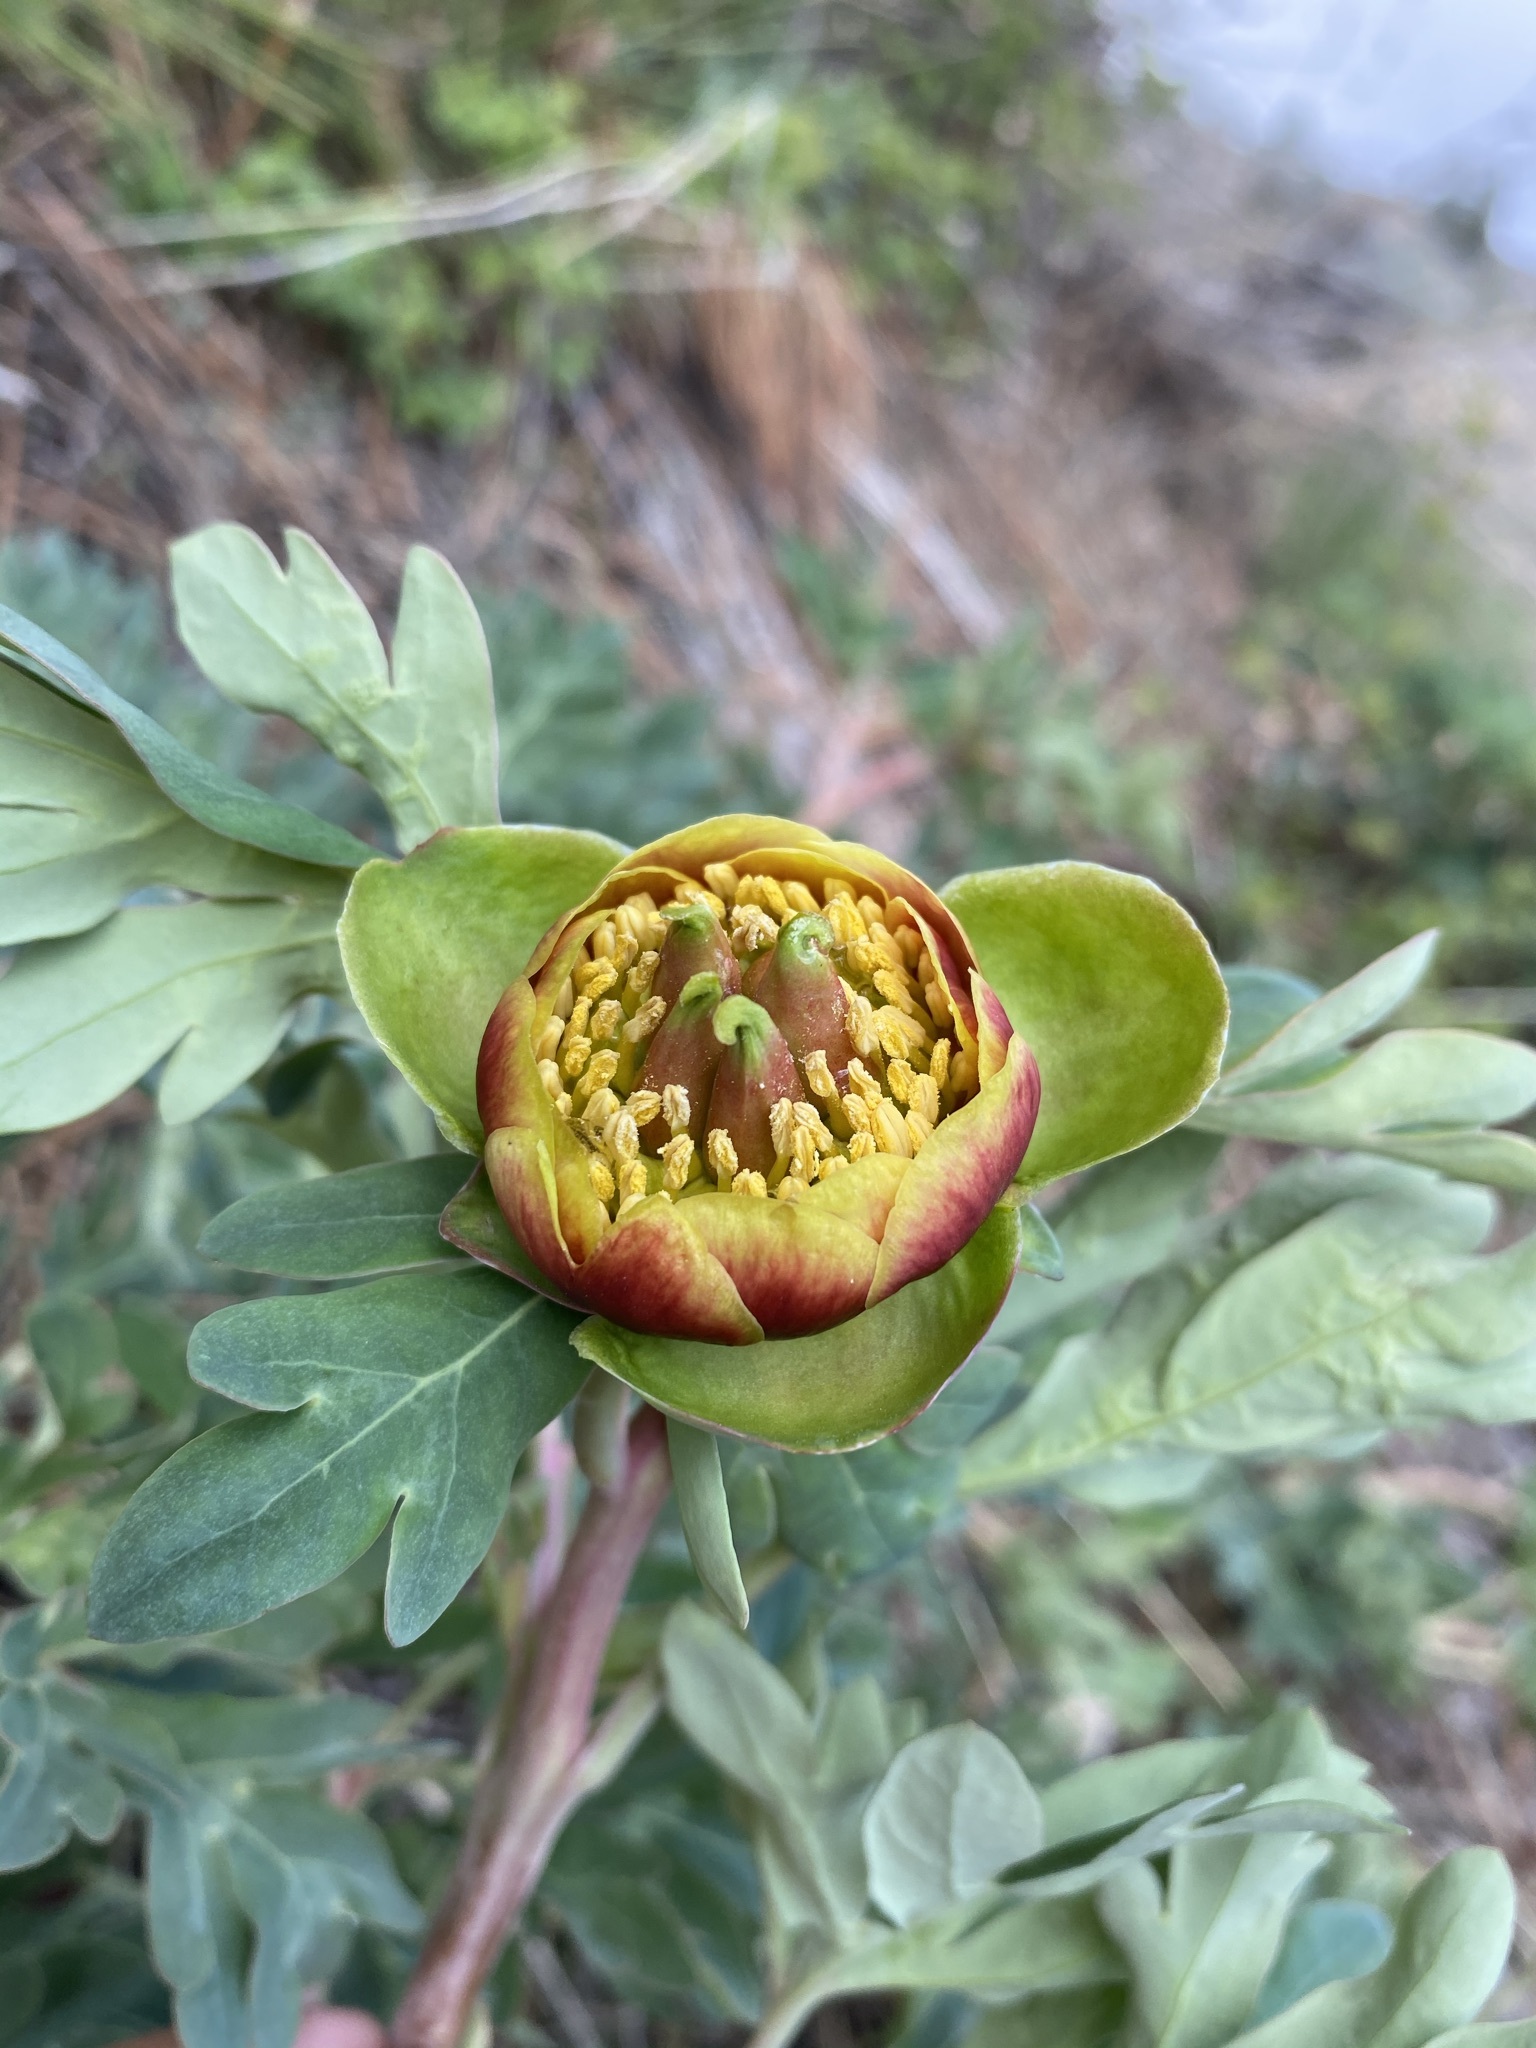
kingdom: Plantae
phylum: Tracheophyta
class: Magnoliopsida
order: Saxifragales
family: Paeoniaceae
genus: Paeonia
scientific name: Paeonia brownii
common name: Brown's peony
